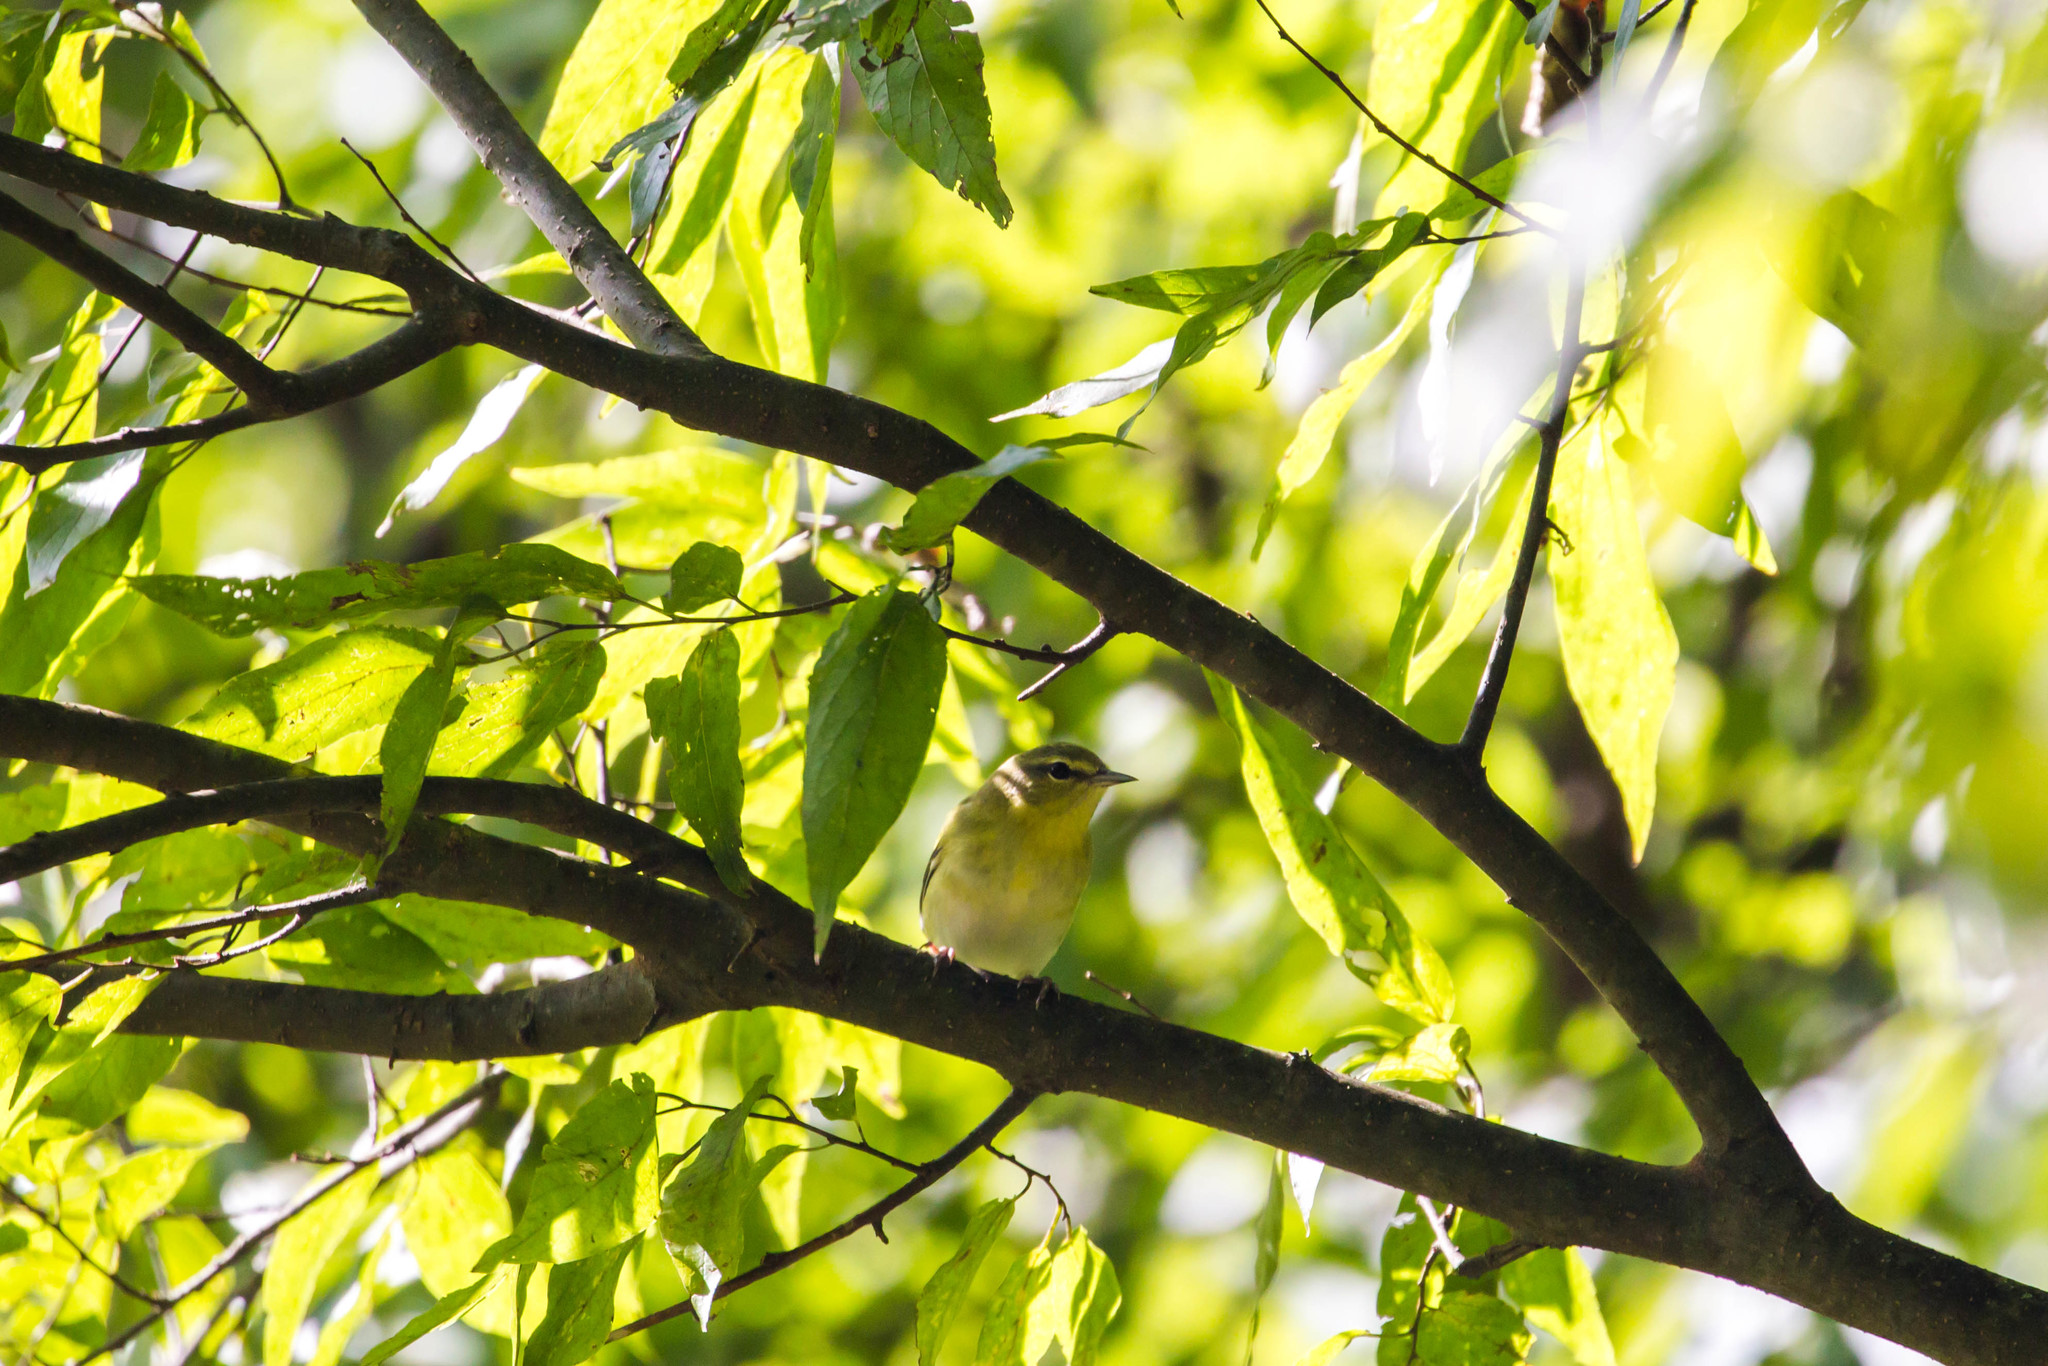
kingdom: Animalia
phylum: Chordata
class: Aves
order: Passeriformes
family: Parulidae
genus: Leiothlypis
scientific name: Leiothlypis peregrina
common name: Tennessee warbler
